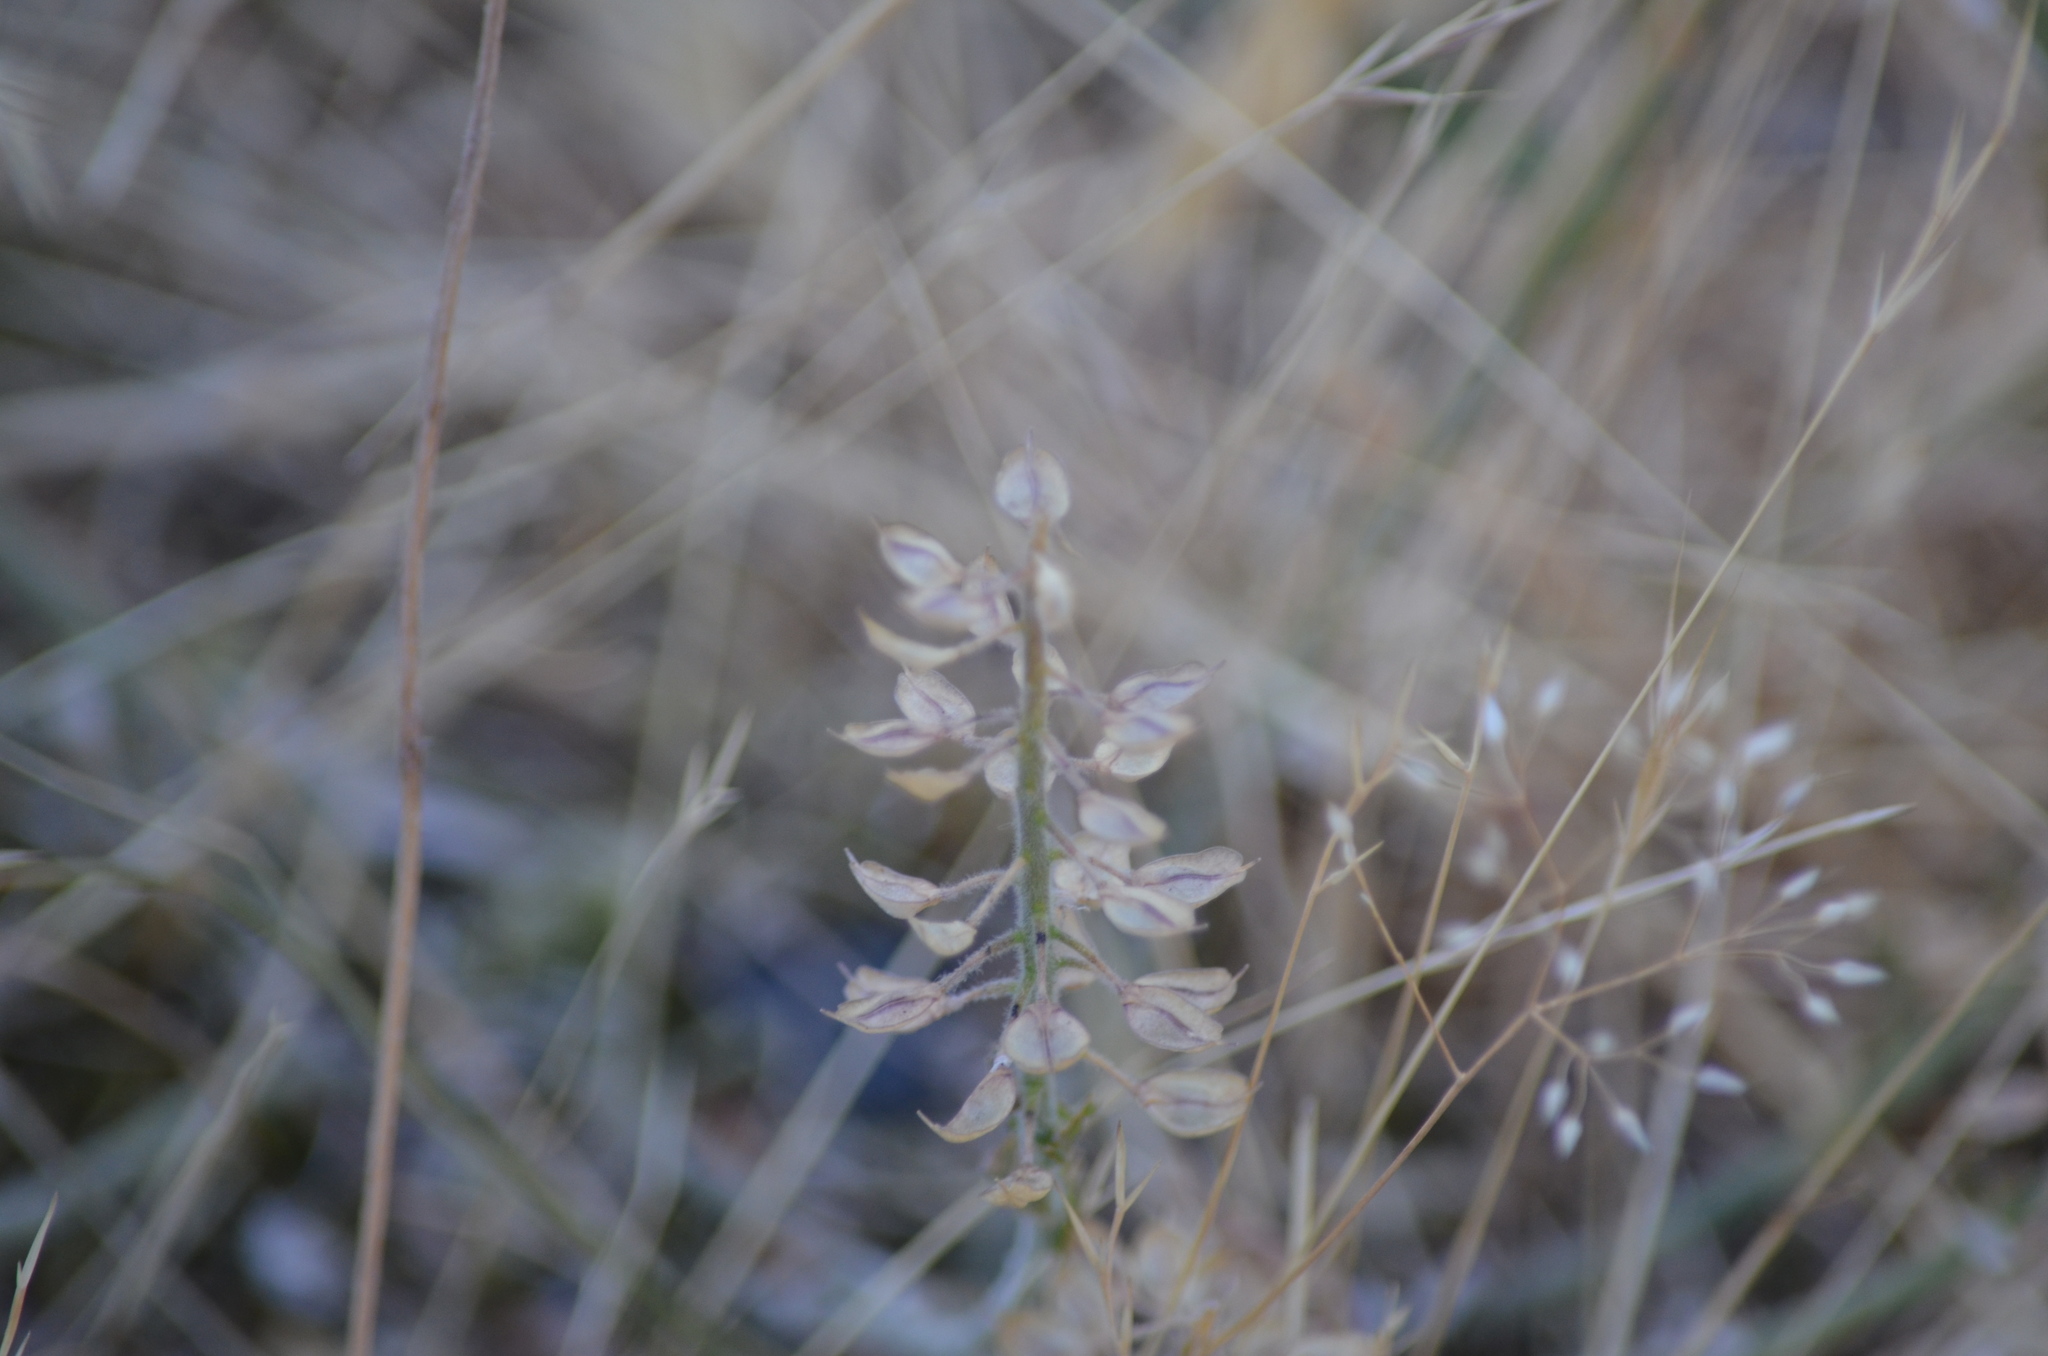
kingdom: Plantae
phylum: Tracheophyta
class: Magnoliopsida
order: Brassicales
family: Brassicaceae
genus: Lepidium
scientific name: Lepidium heterophyllum
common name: Smith's pepperwort
